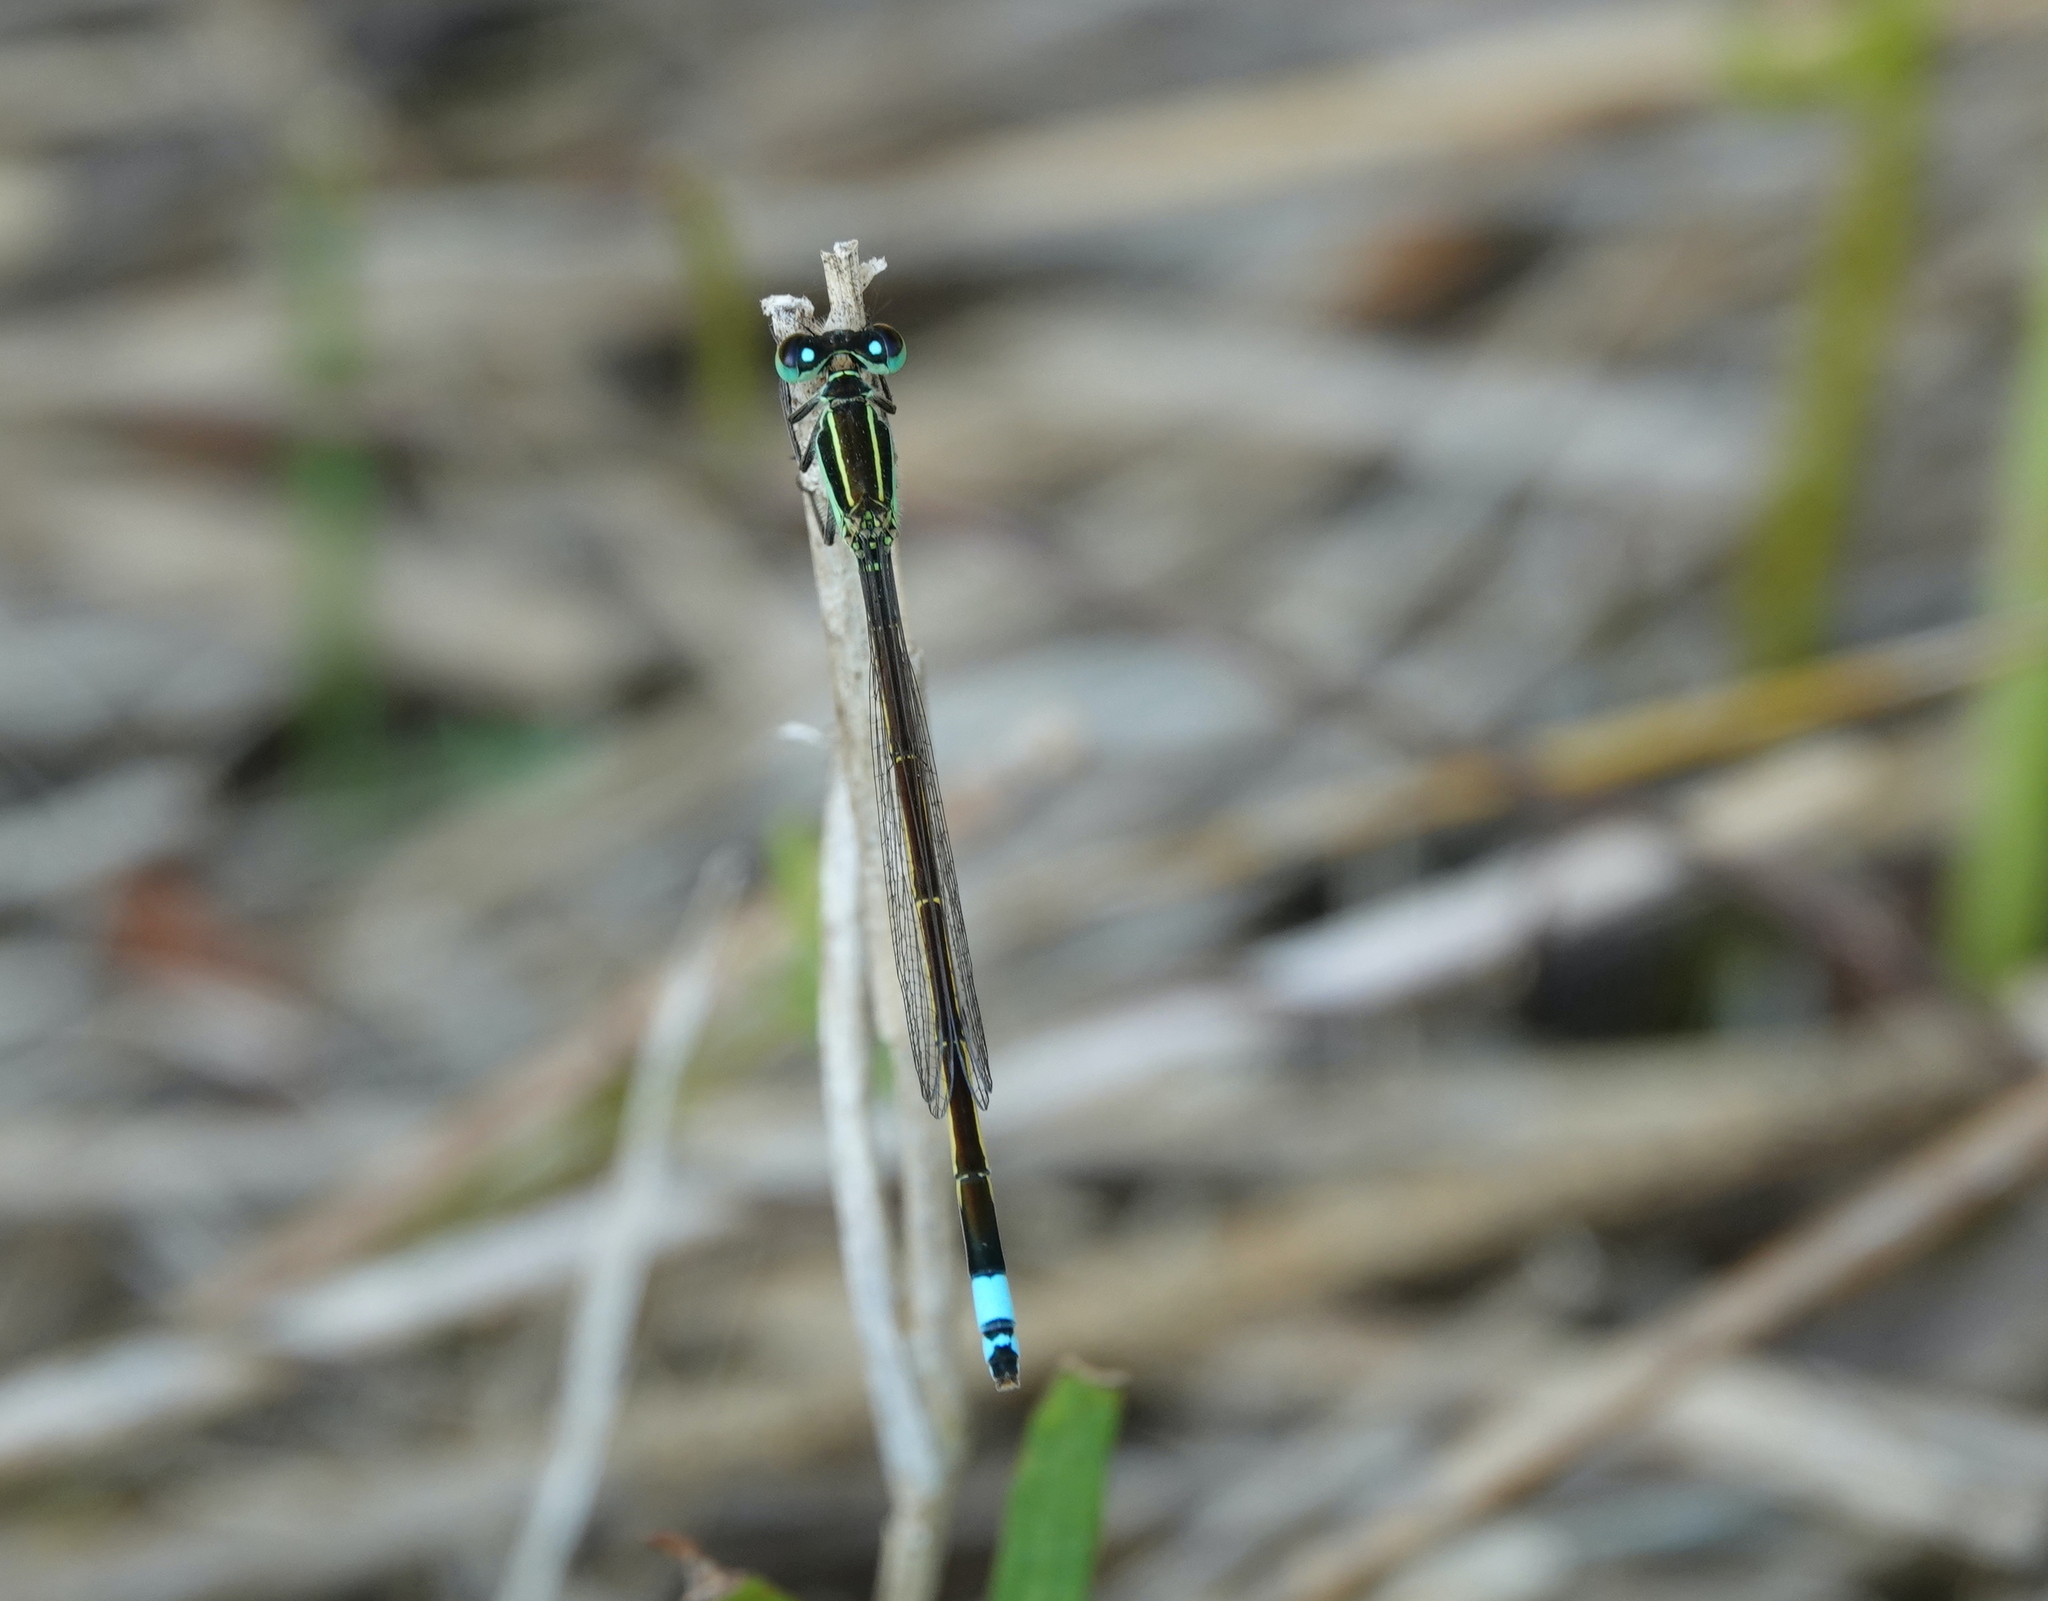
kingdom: Animalia
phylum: Arthropoda
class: Insecta
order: Odonata
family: Coenagrionidae
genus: Ischnura
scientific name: Ischnura ramburii
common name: Rambur's forktail
